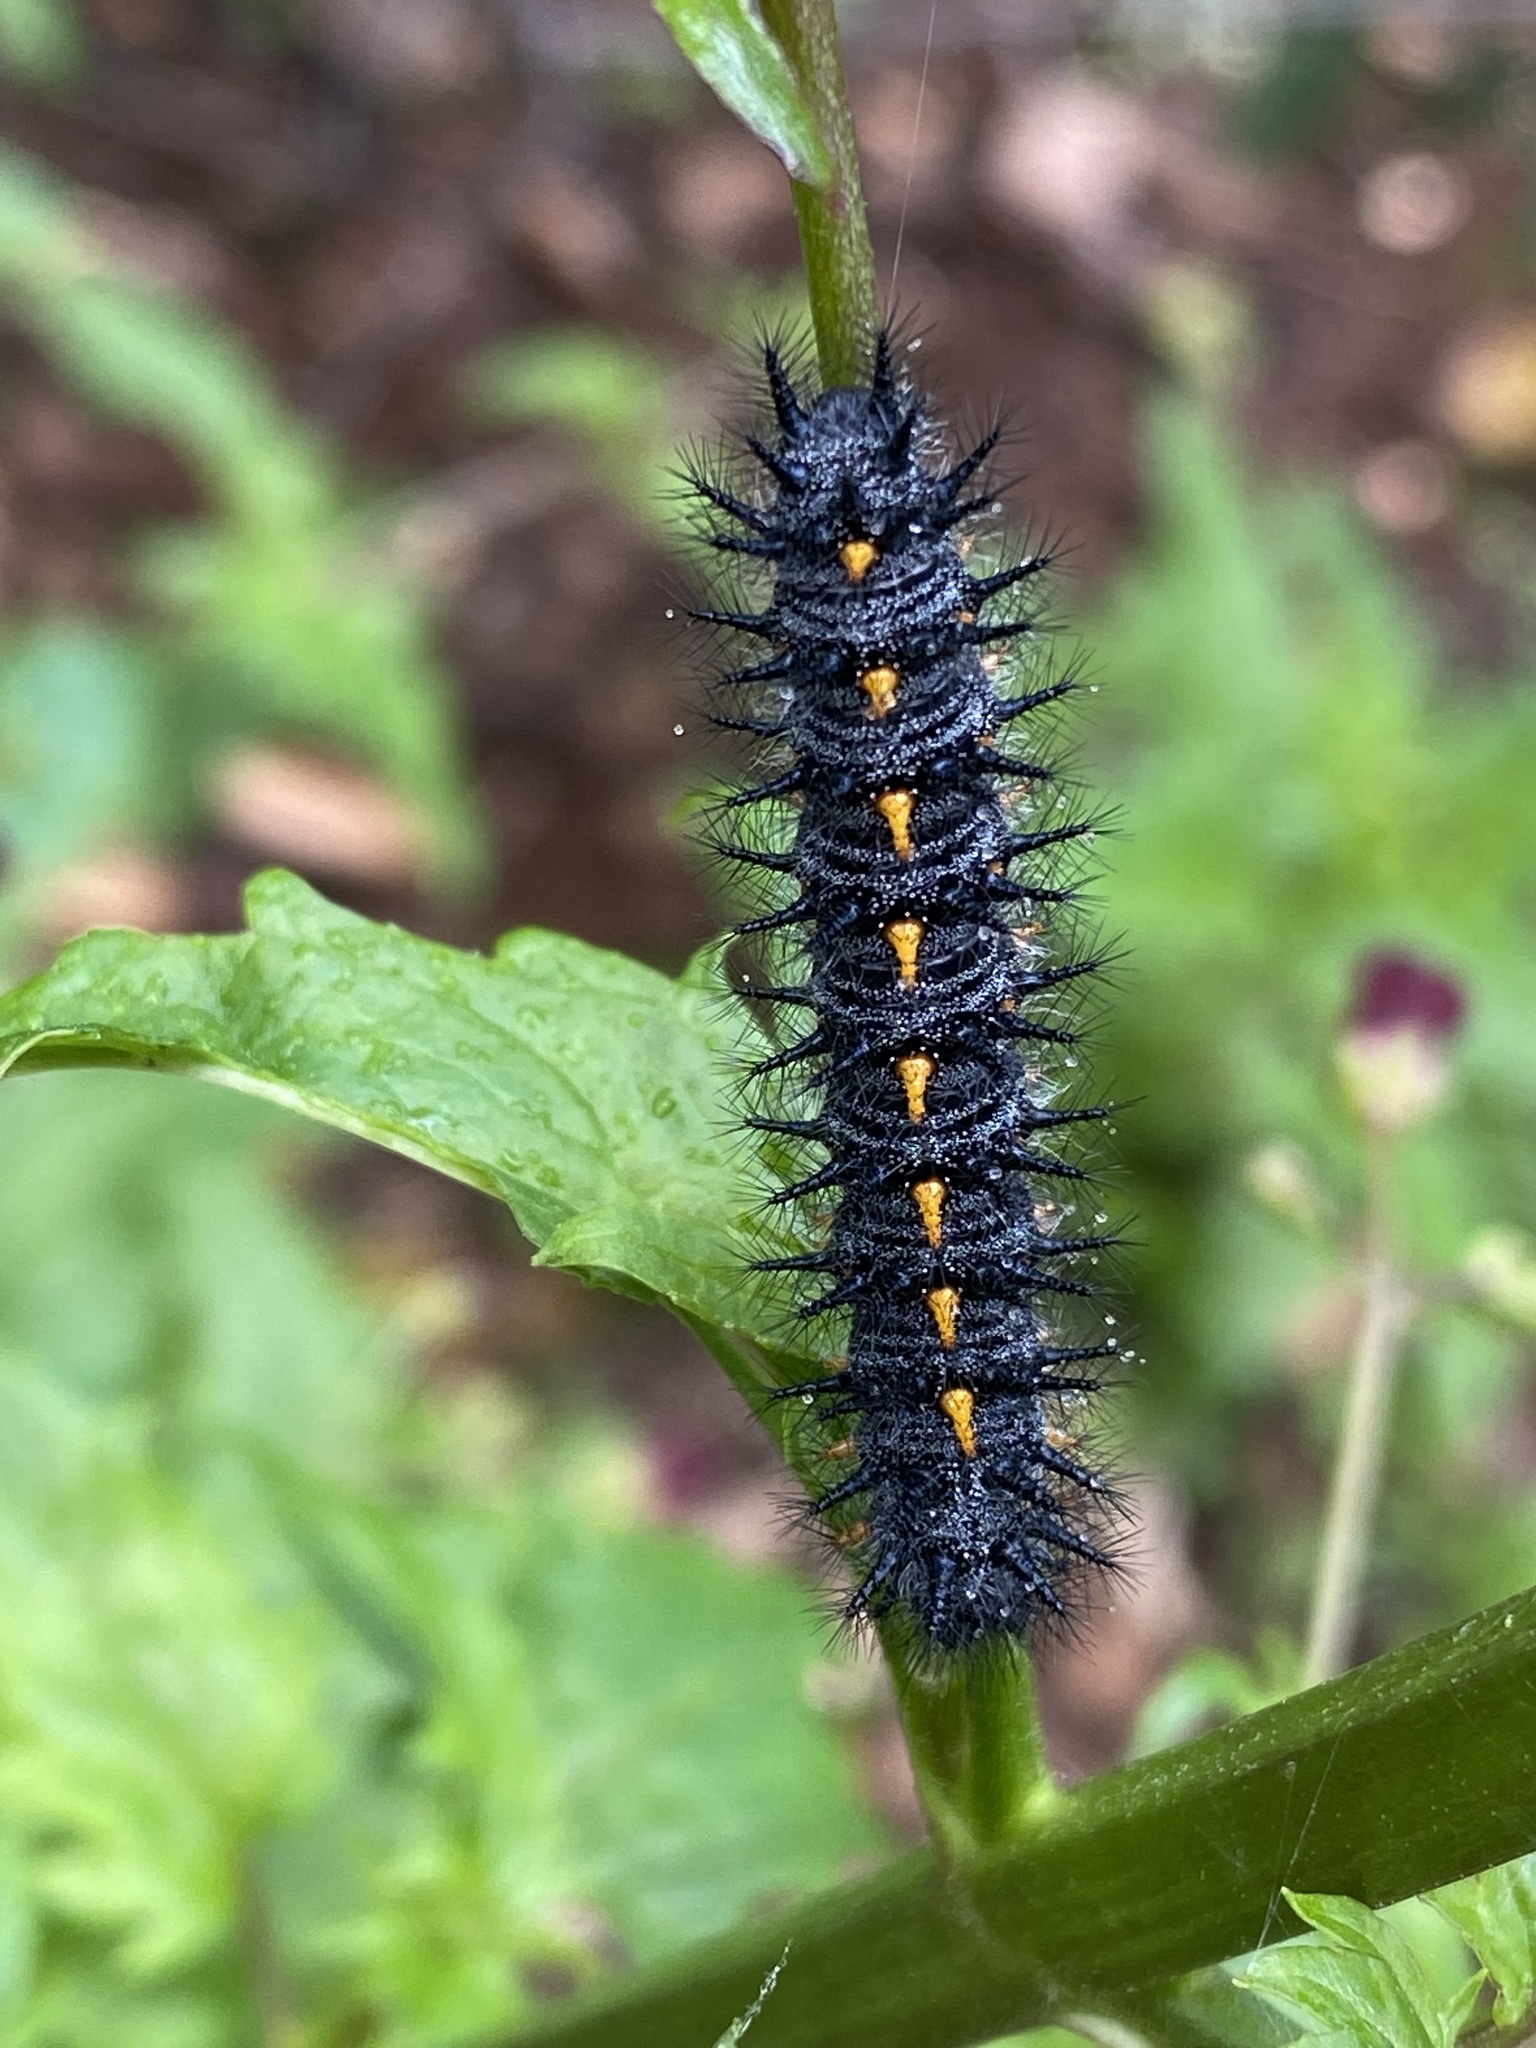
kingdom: Animalia
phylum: Arthropoda
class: Insecta
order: Lepidoptera
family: Nymphalidae
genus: Occidryas
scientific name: Occidryas chalcedona
